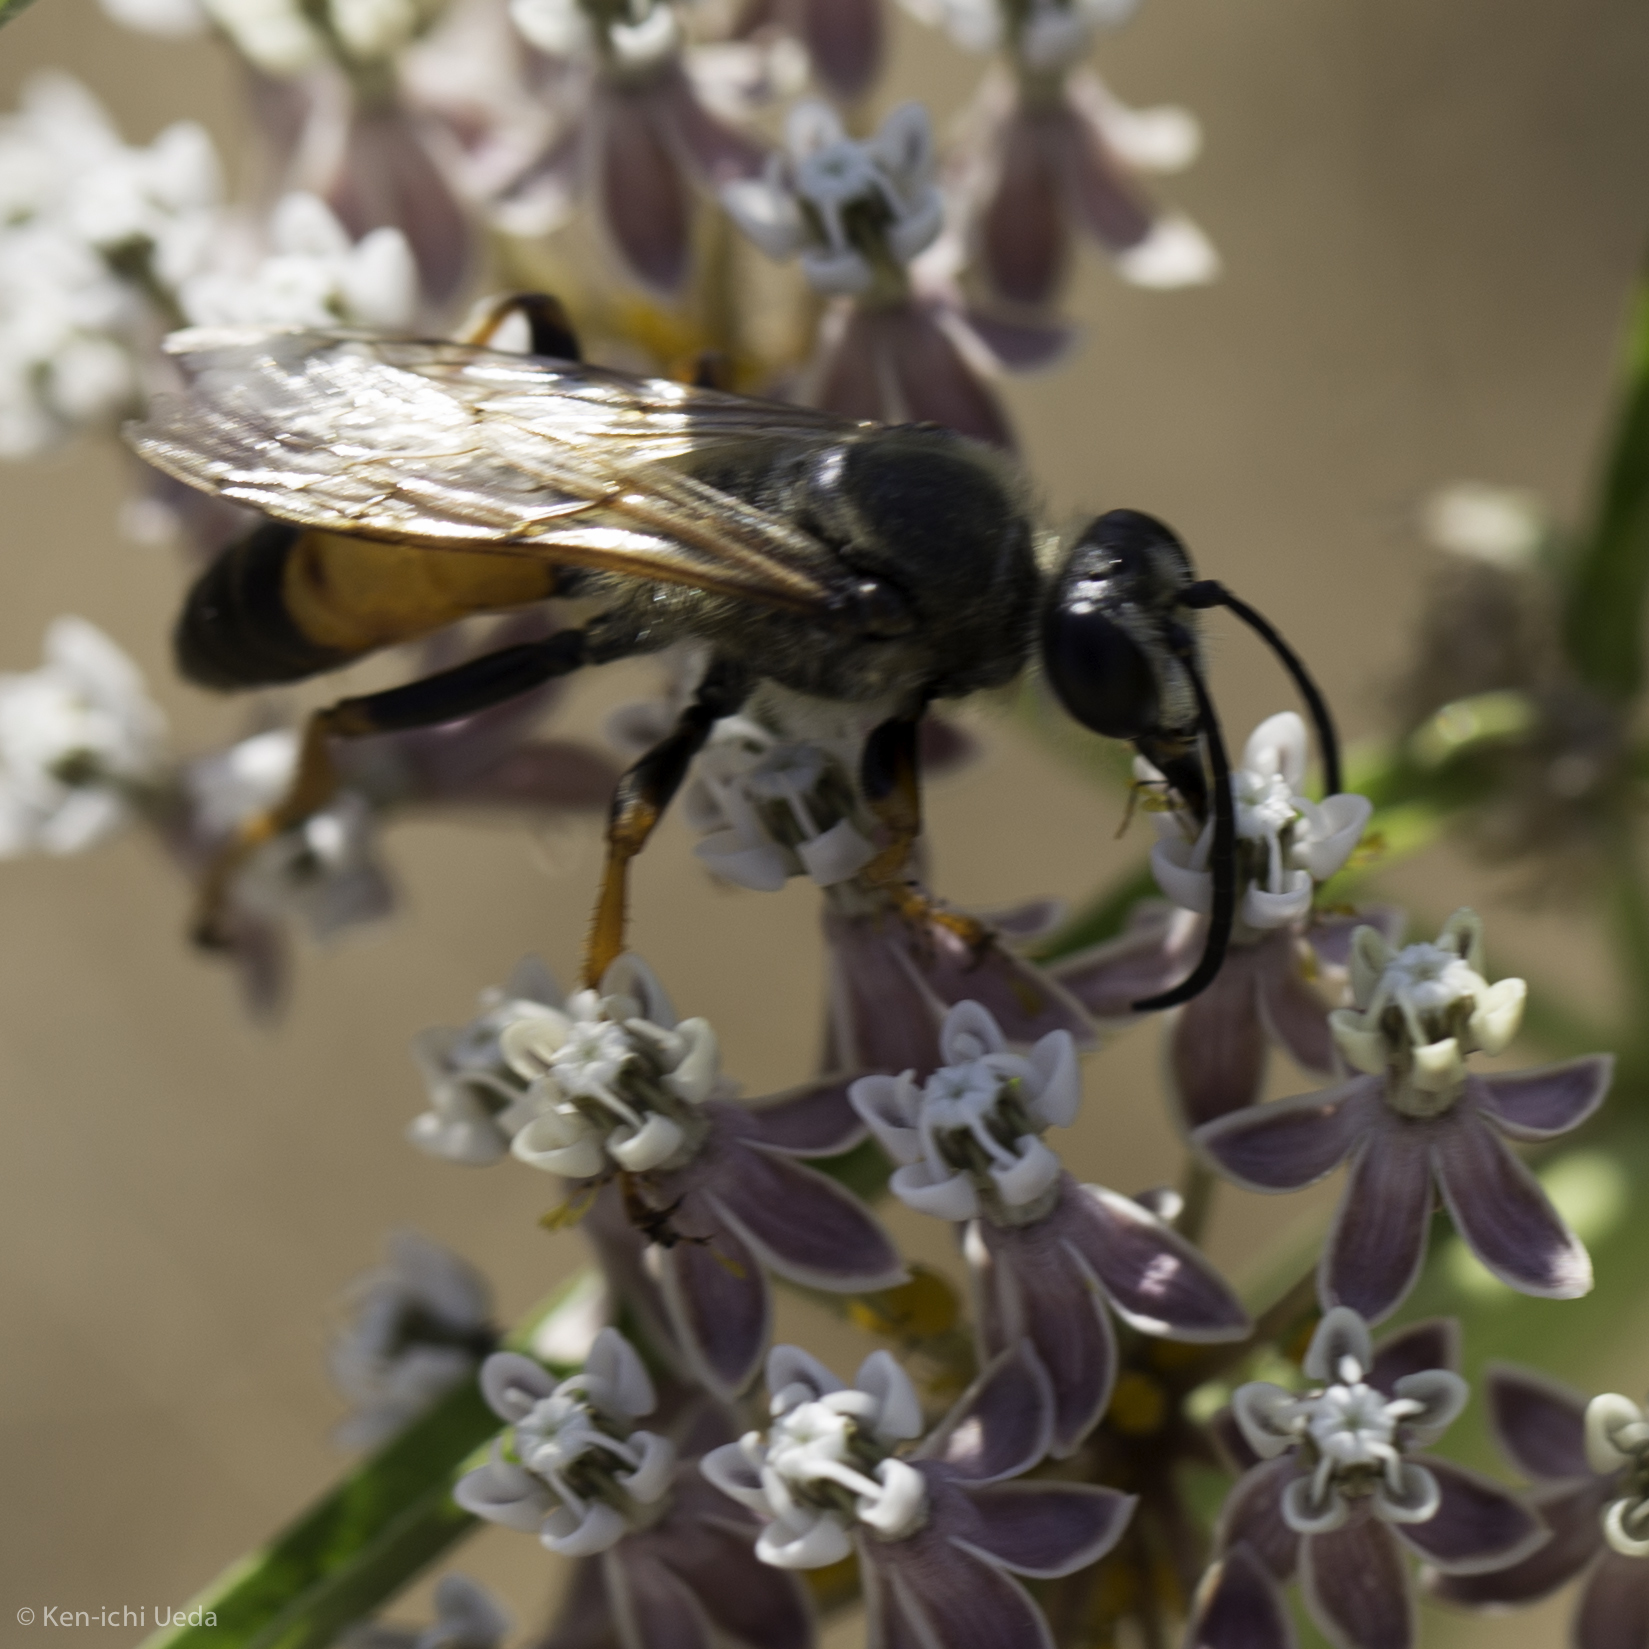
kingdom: Animalia
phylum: Arthropoda
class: Insecta
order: Hymenoptera
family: Sphecidae
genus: Sphex
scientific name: Sphex ichneumoneus
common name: Great golden digger wasp
